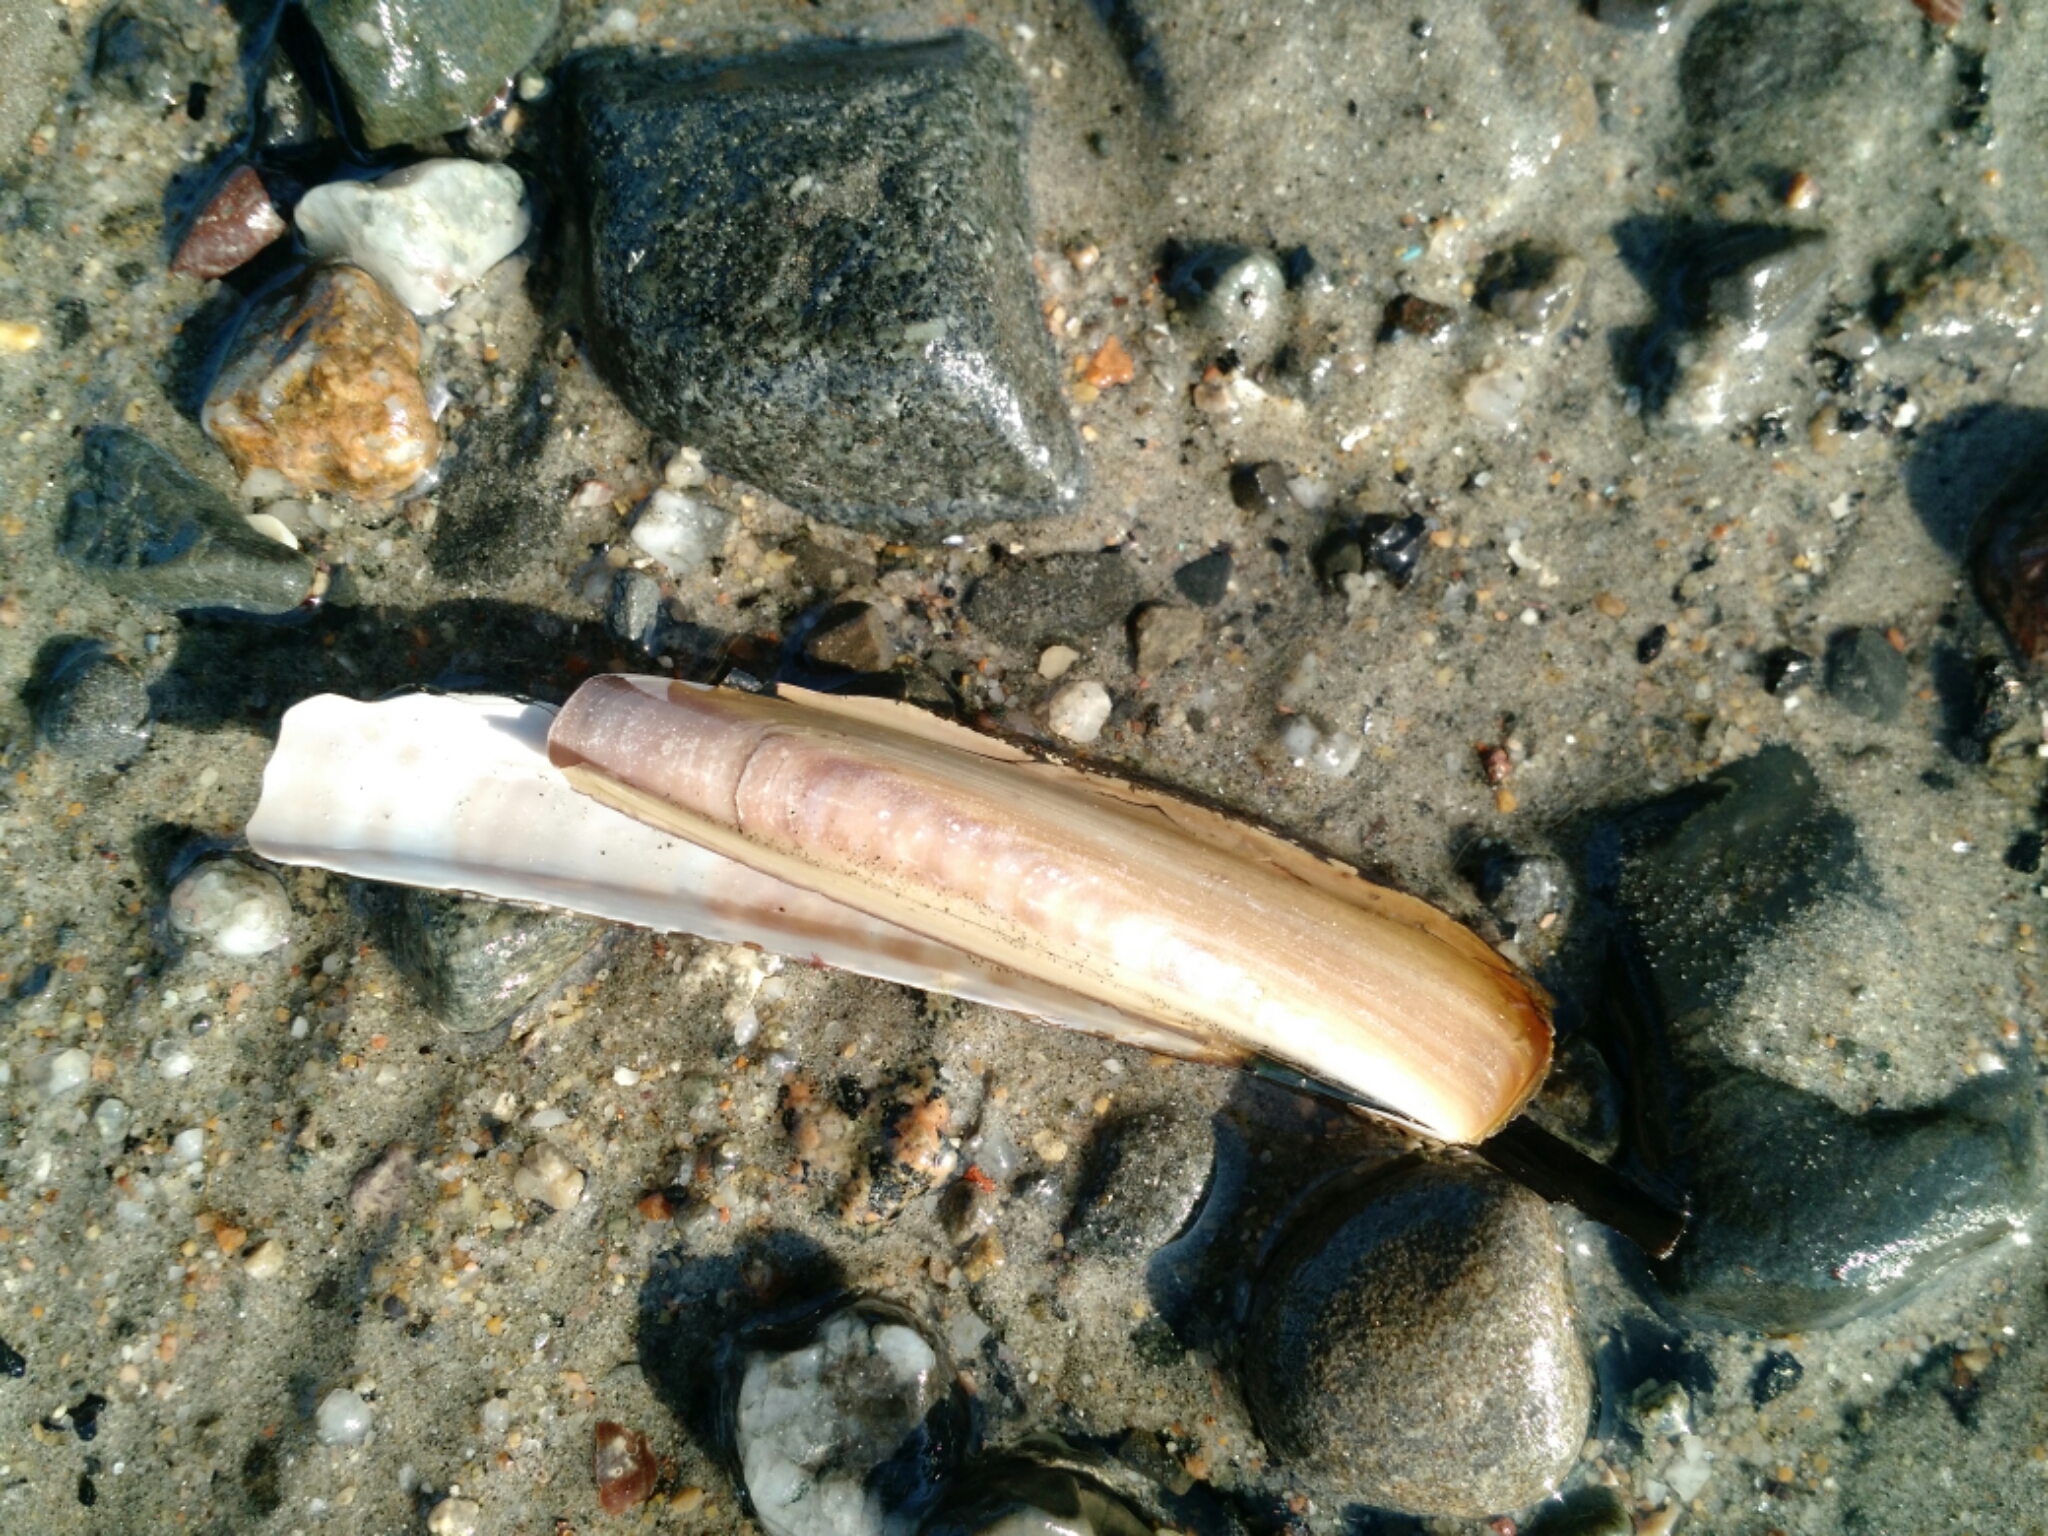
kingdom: Animalia
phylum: Mollusca
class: Bivalvia
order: Adapedonta
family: Pharidae
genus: Ensis
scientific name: Ensis leei
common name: American jack knife clam
